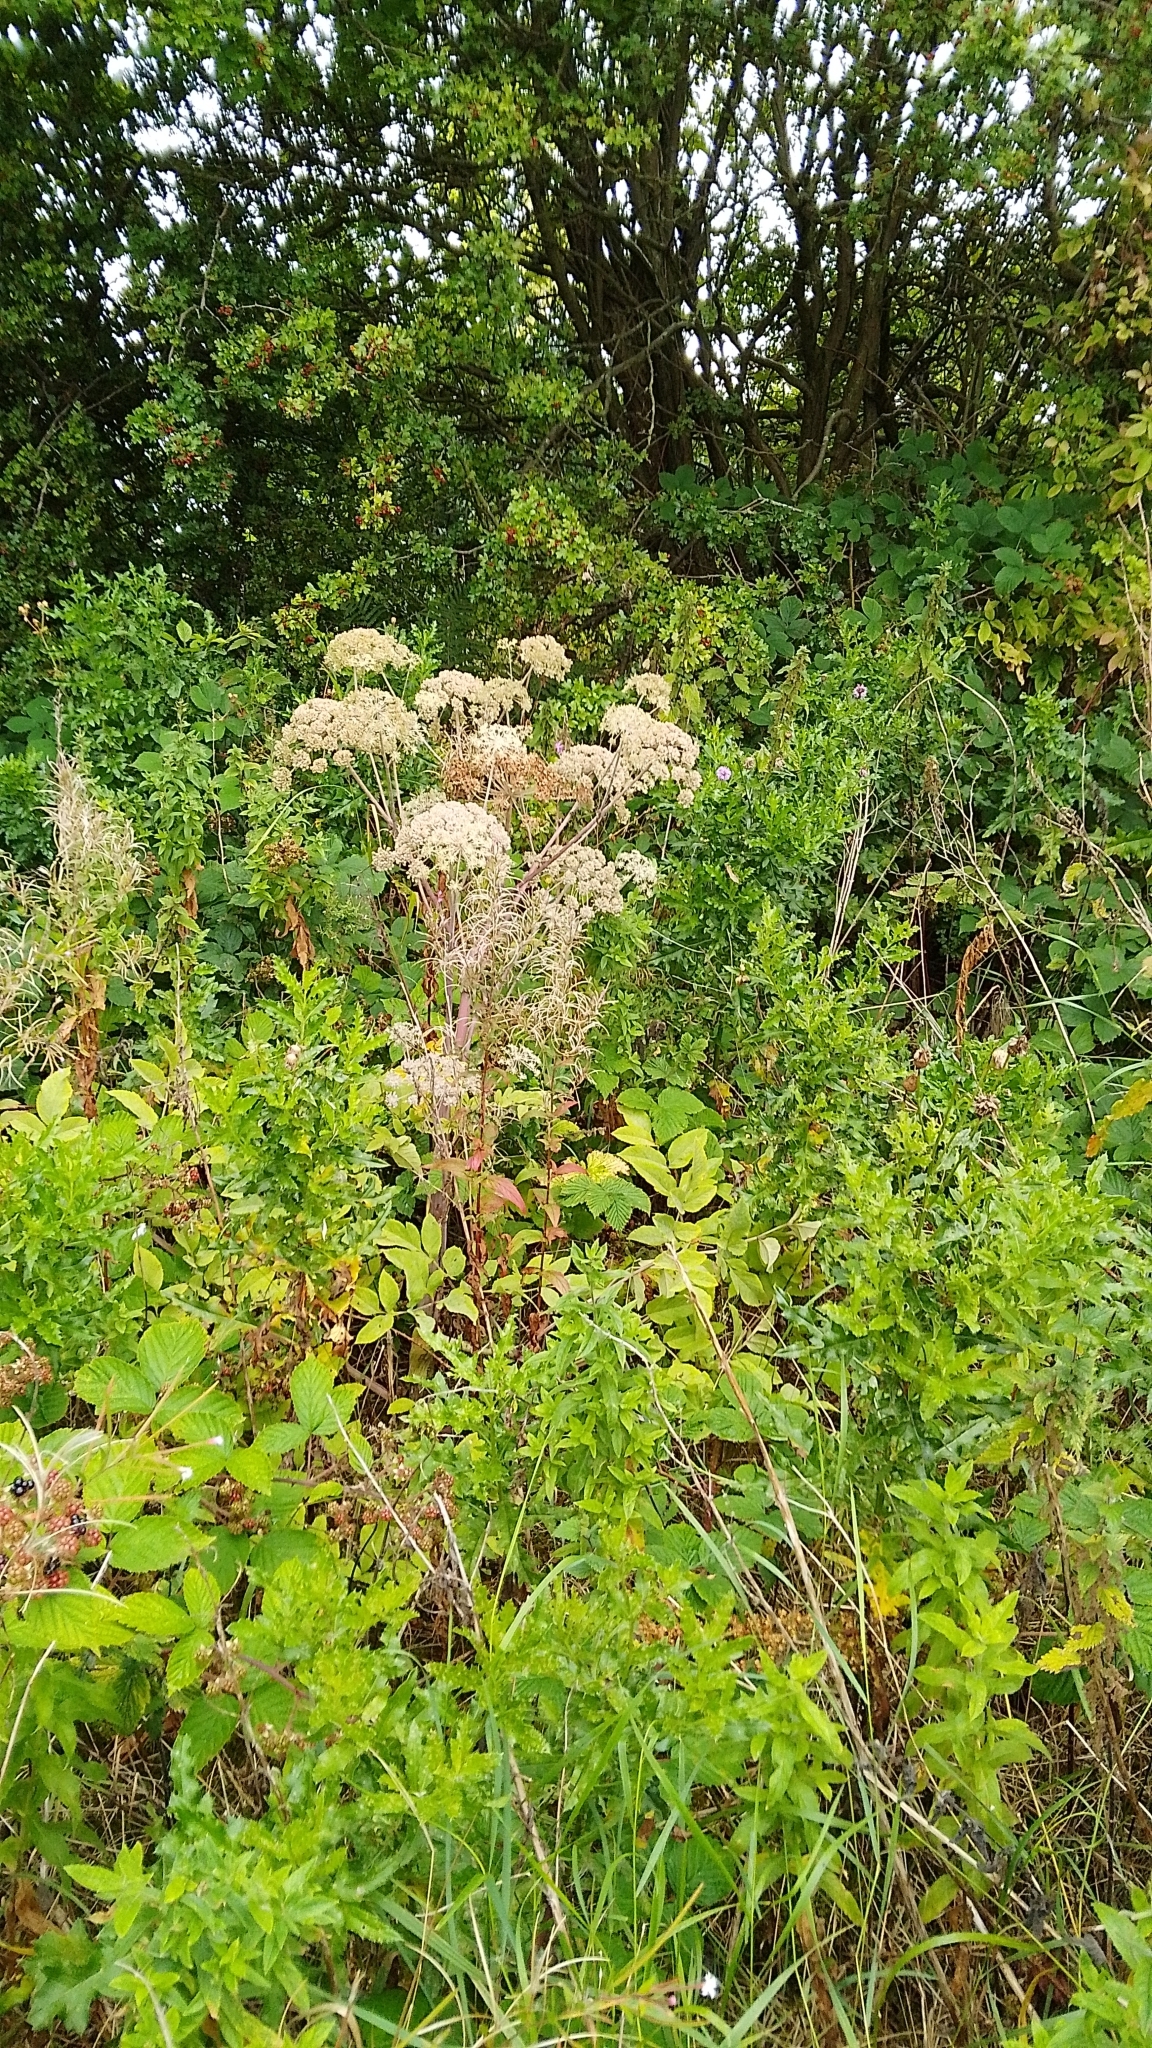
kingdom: Plantae
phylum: Tracheophyta
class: Magnoliopsida
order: Apiales
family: Apiaceae
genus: Angelica
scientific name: Angelica sylvestris
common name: Wild angelica
